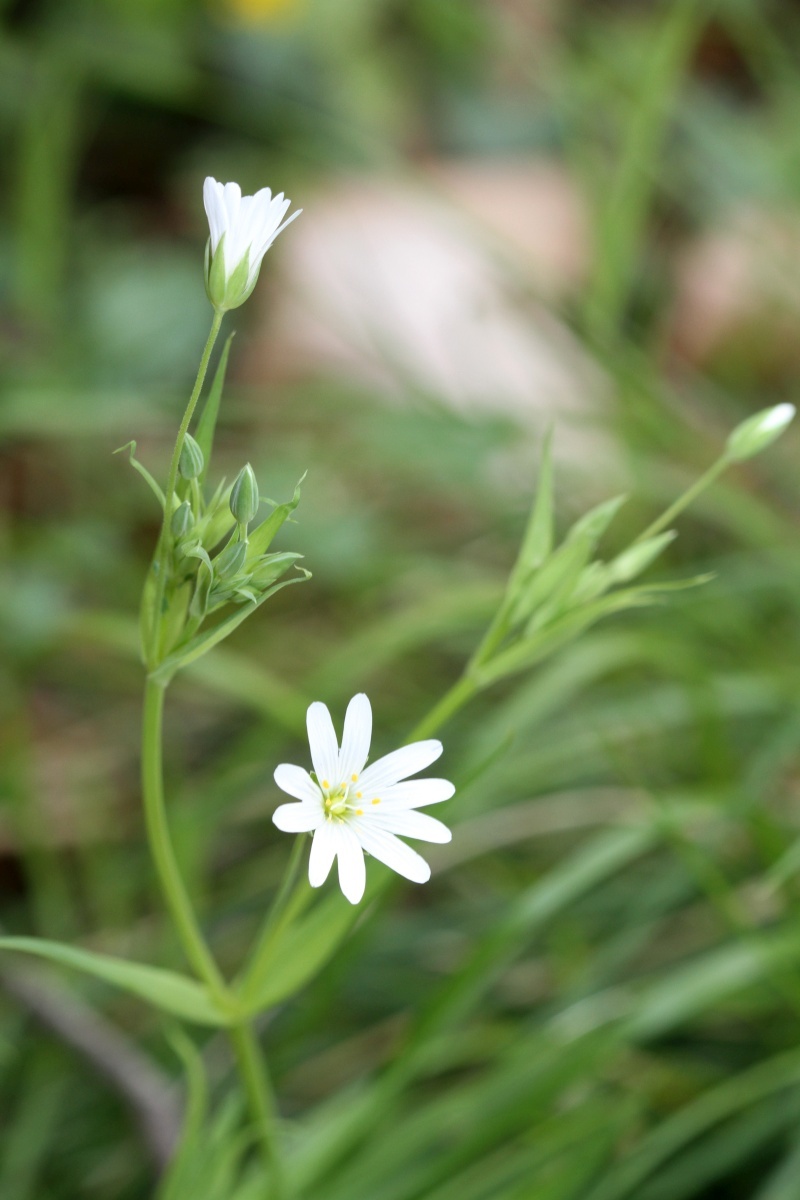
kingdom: Plantae
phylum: Tracheophyta
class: Magnoliopsida
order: Caryophyllales
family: Caryophyllaceae
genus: Rabelera
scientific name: Rabelera holostea
